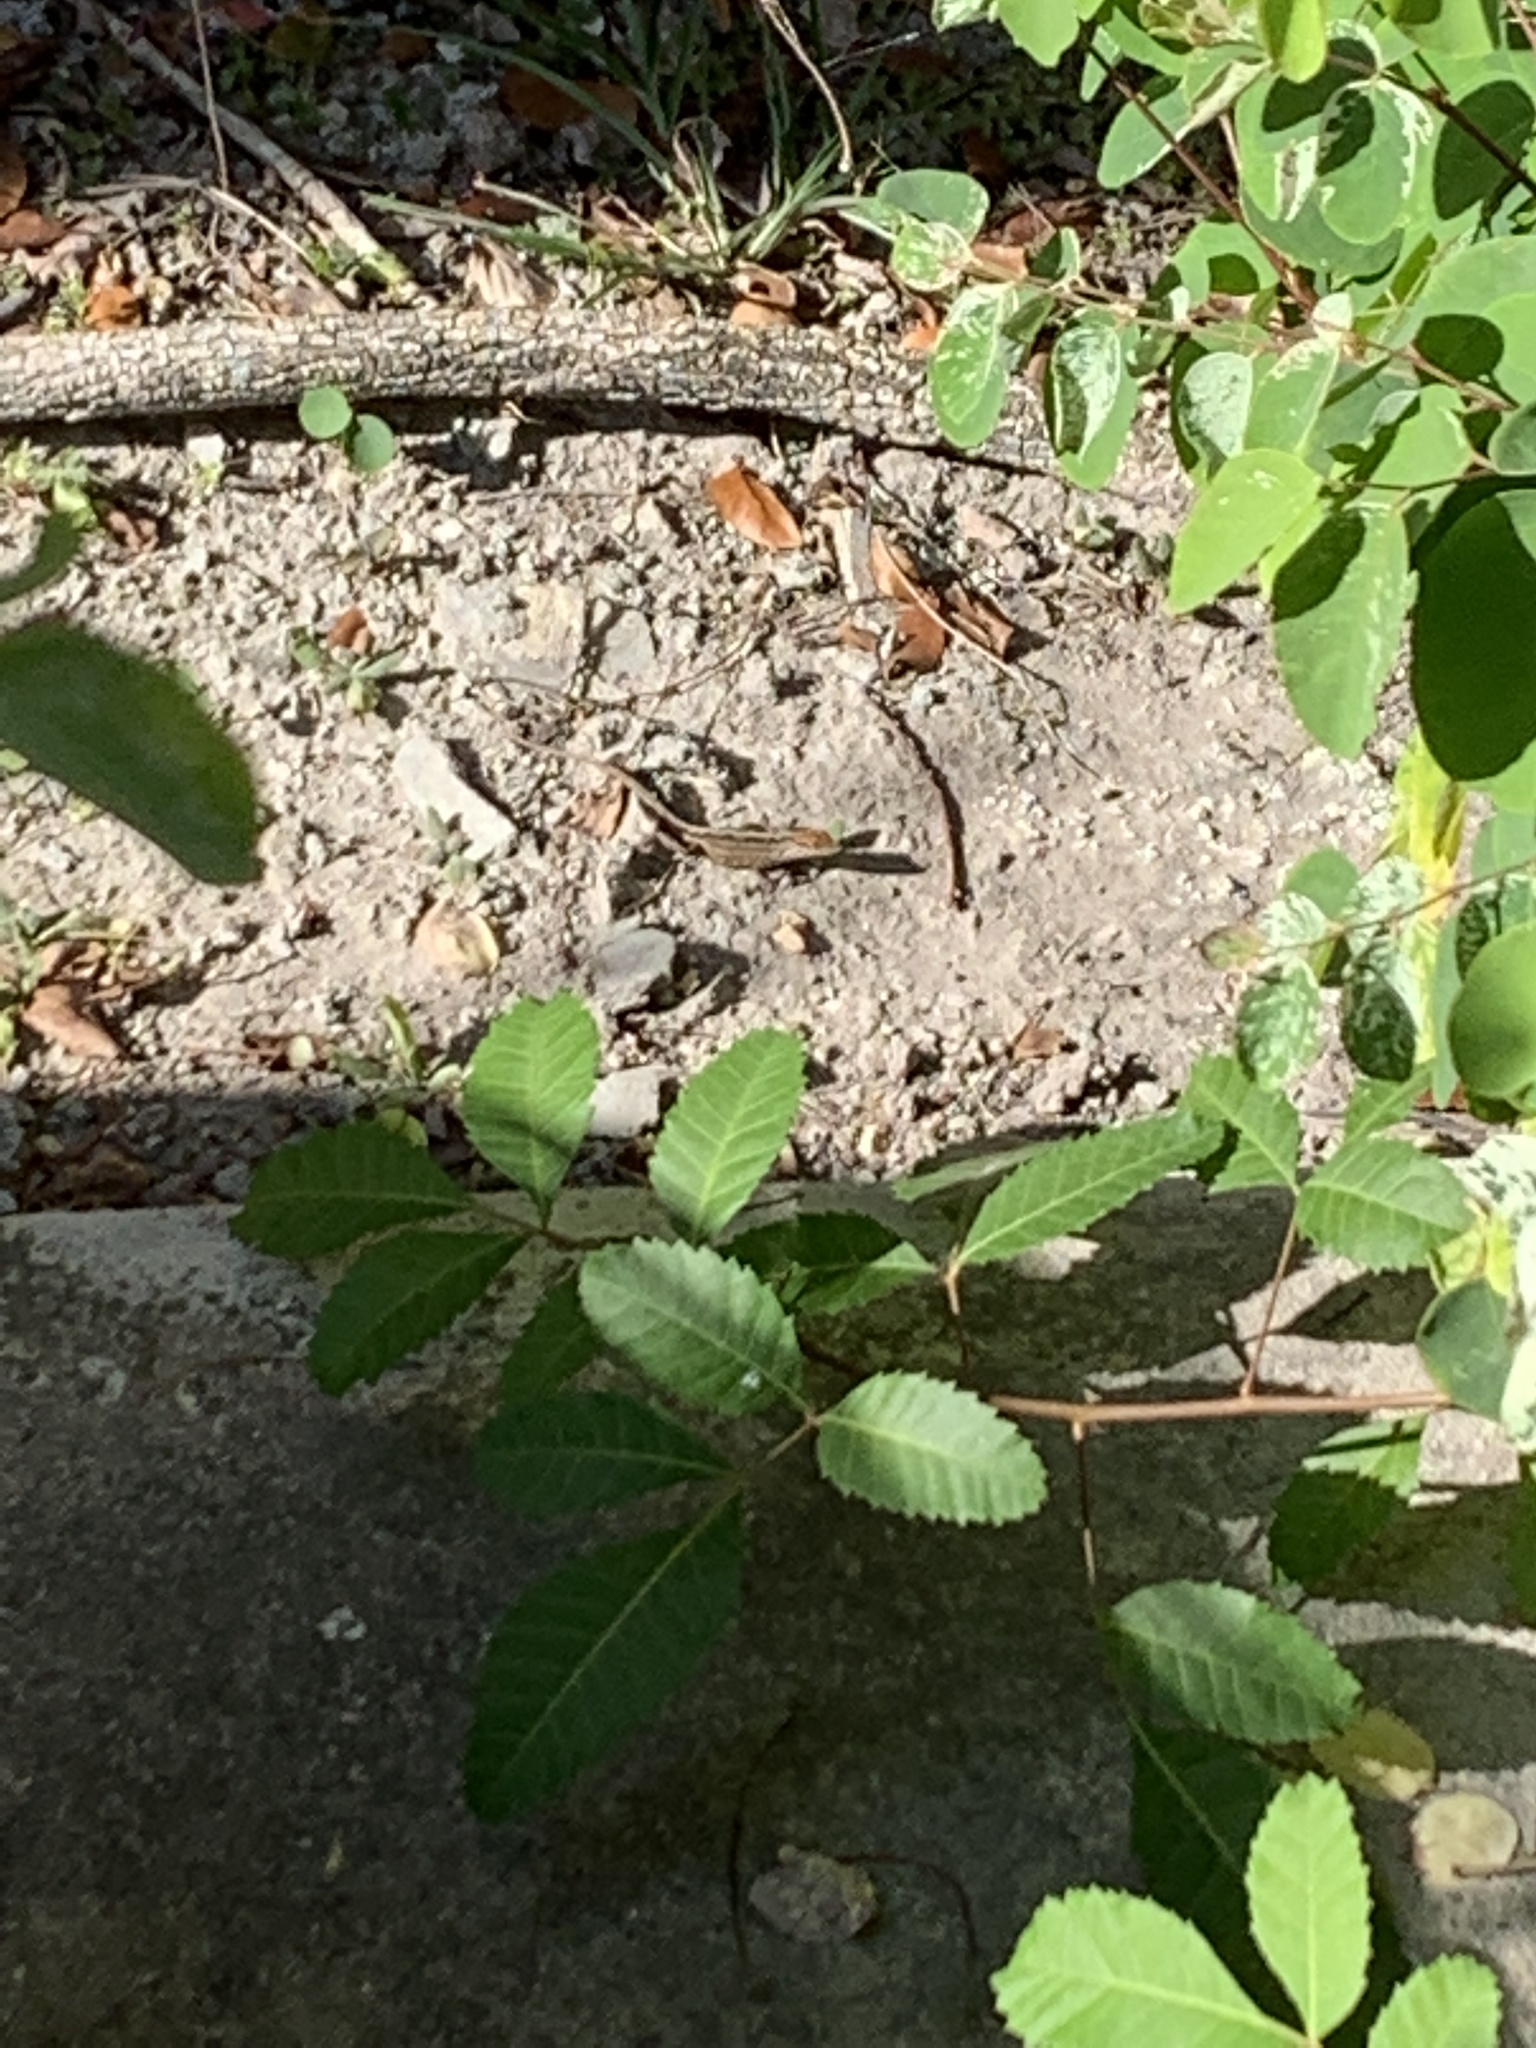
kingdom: Animalia
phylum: Chordata
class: Squamata
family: Dactyloidae
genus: Anolis
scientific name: Anolis sagrei
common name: Brown anole
